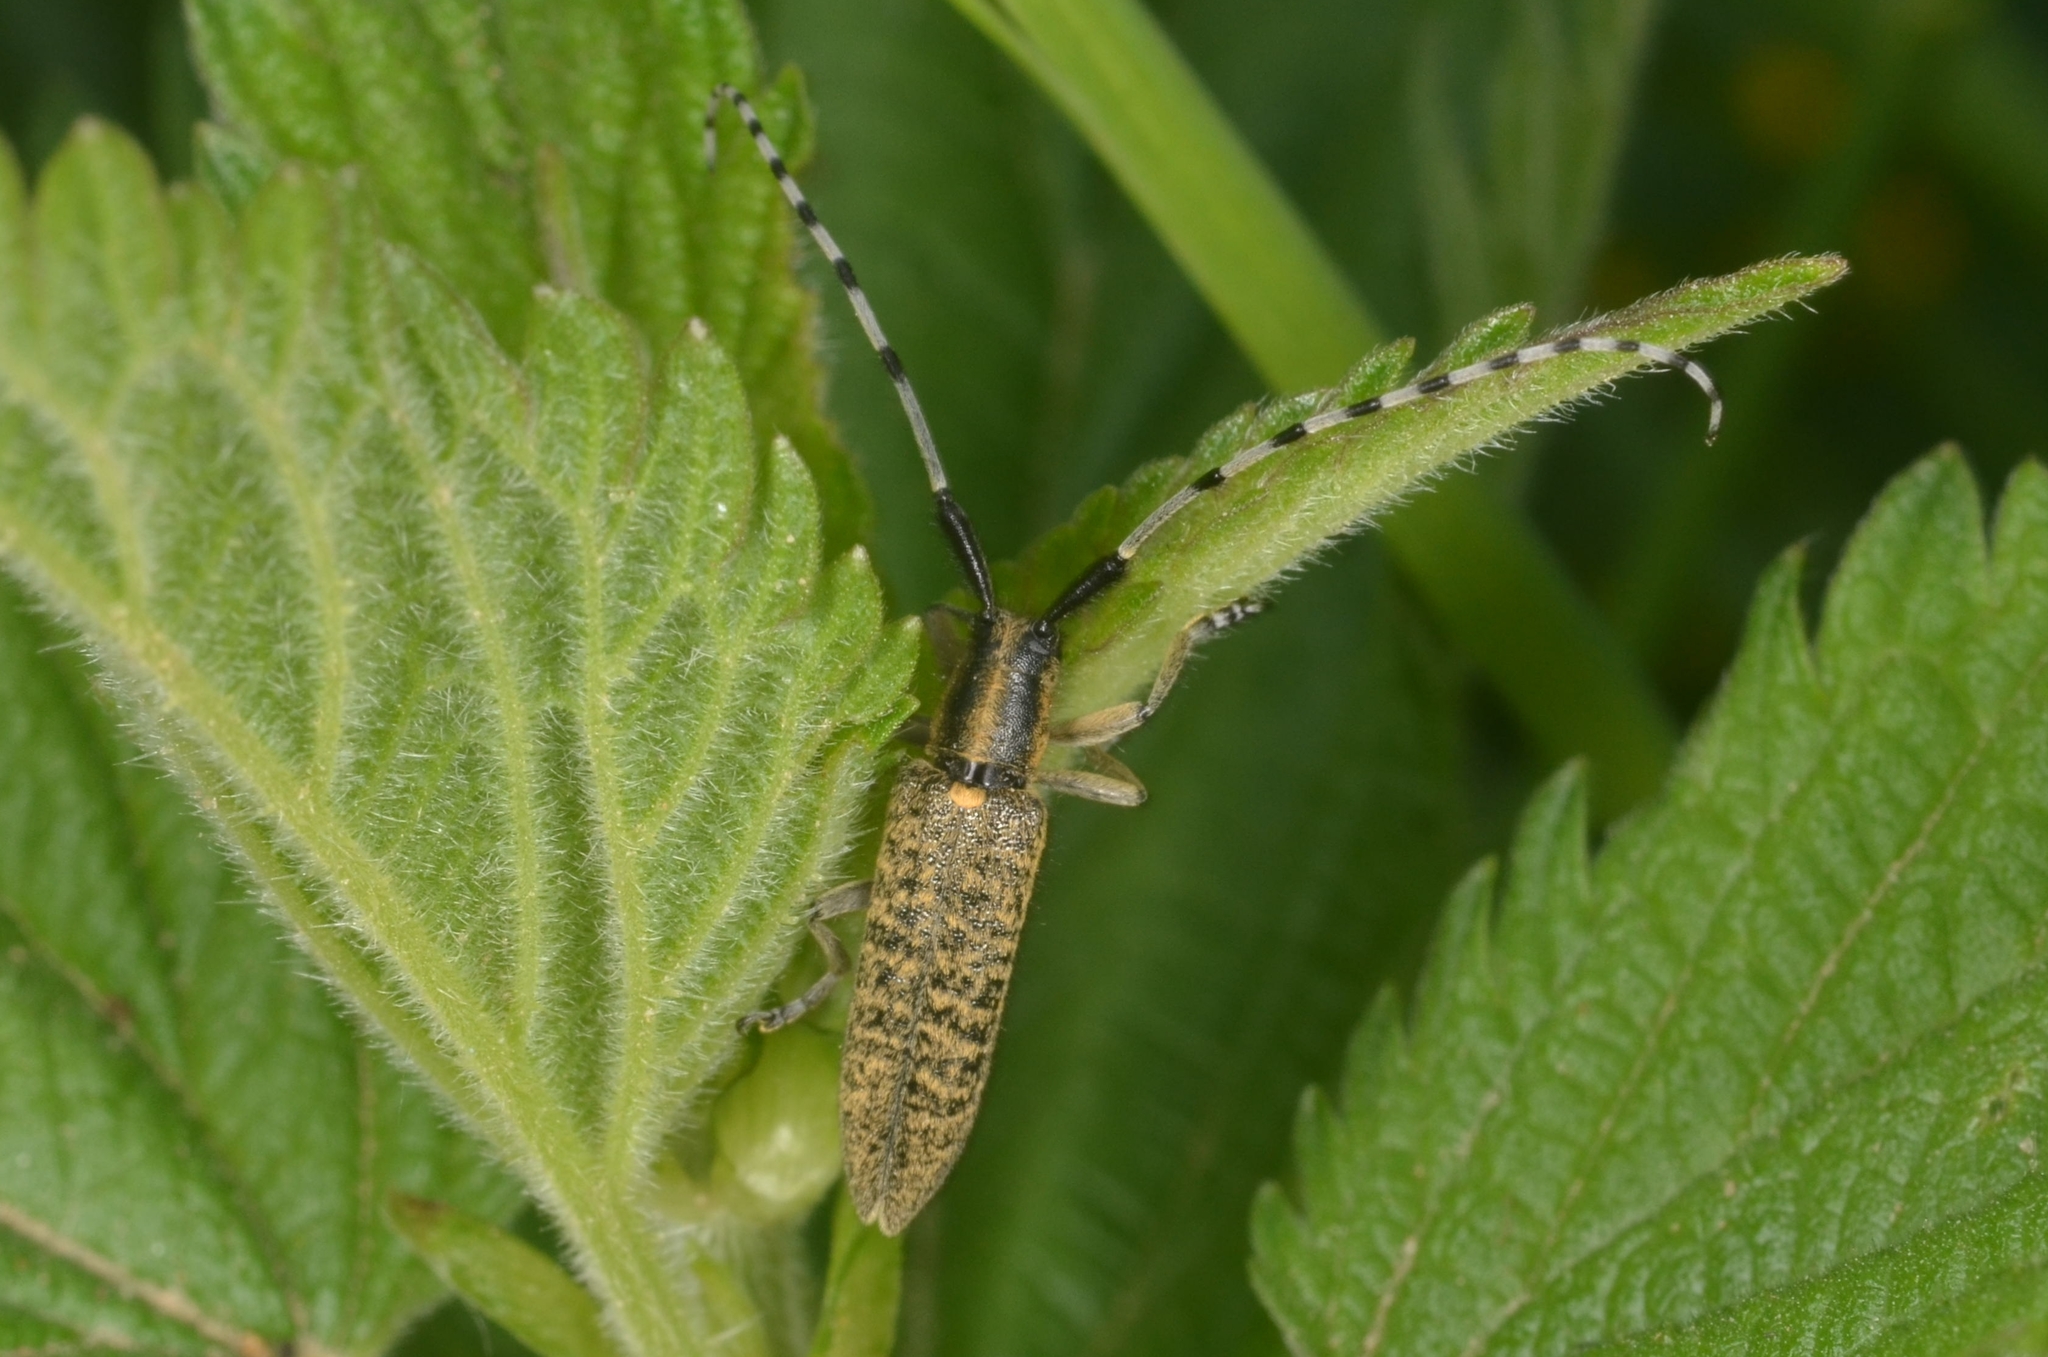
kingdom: Animalia
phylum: Arthropoda
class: Insecta
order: Coleoptera
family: Cerambycidae
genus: Agapanthia
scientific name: Agapanthia villosoviridescens
